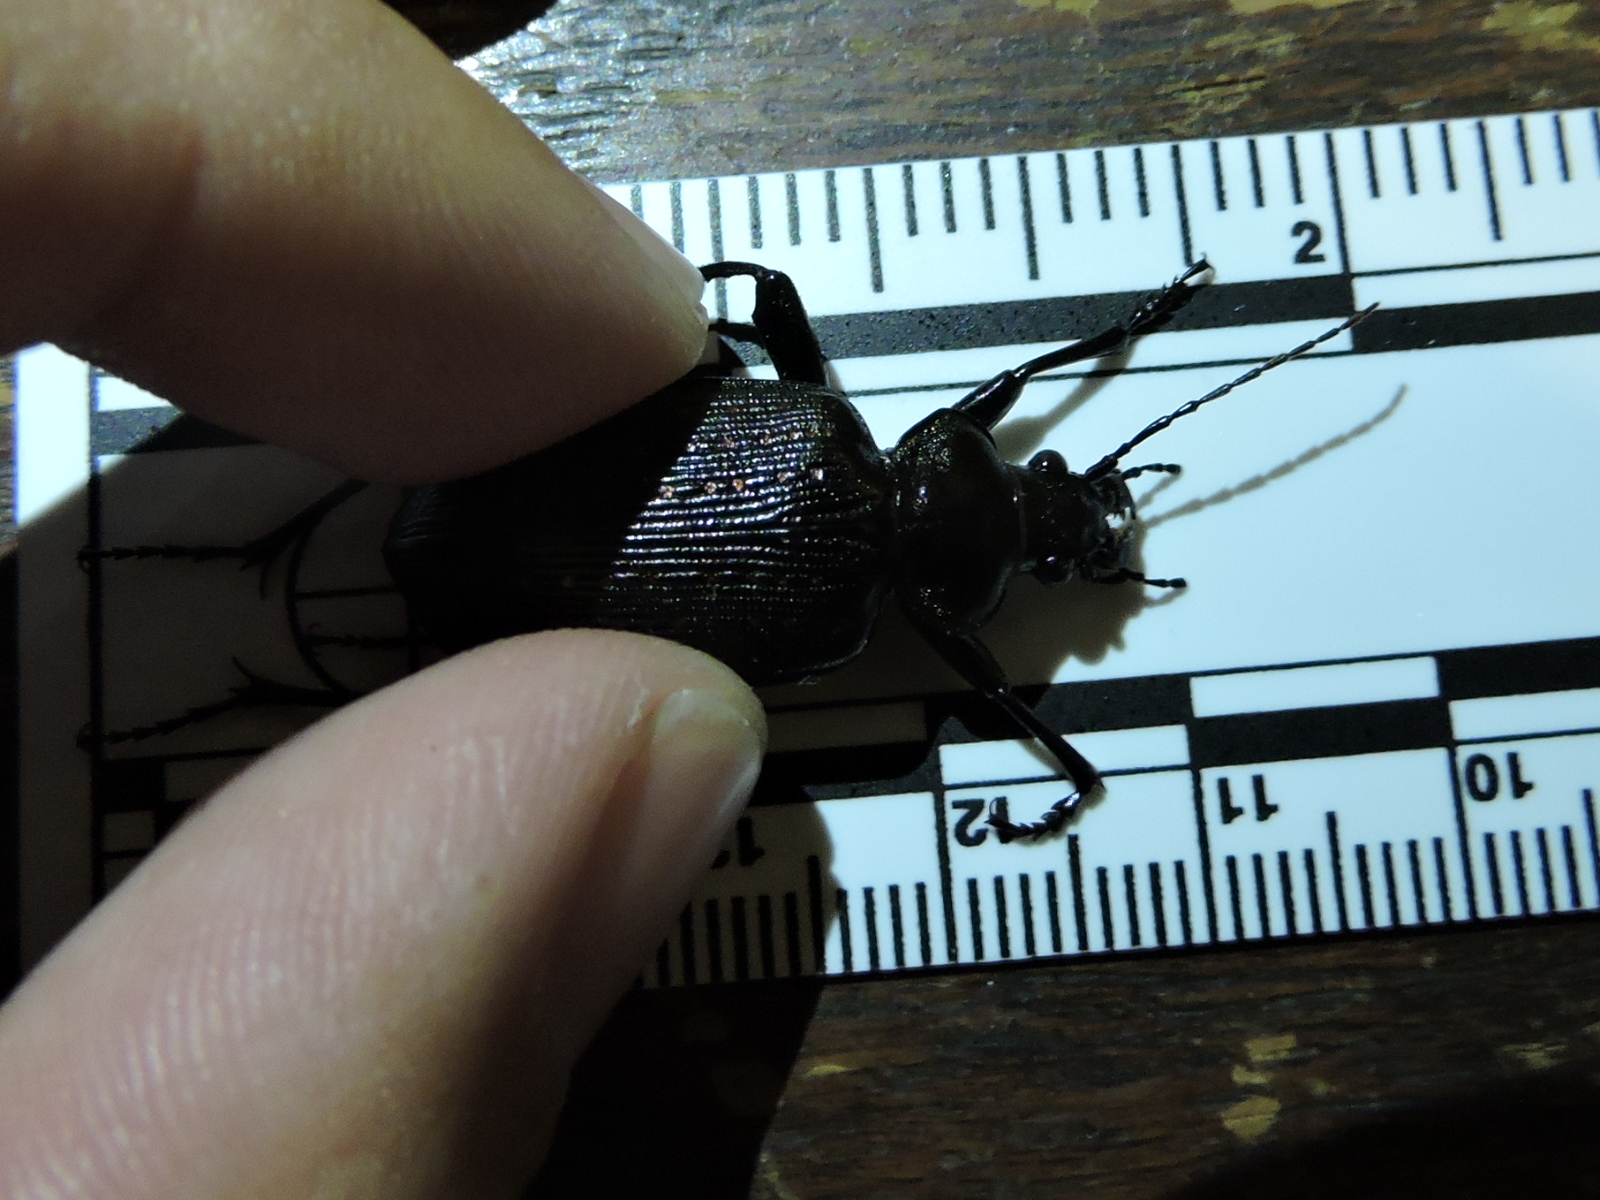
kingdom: Animalia
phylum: Arthropoda
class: Insecta
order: Coleoptera
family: Carabidae
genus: Calosoma
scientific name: Calosoma sayi
